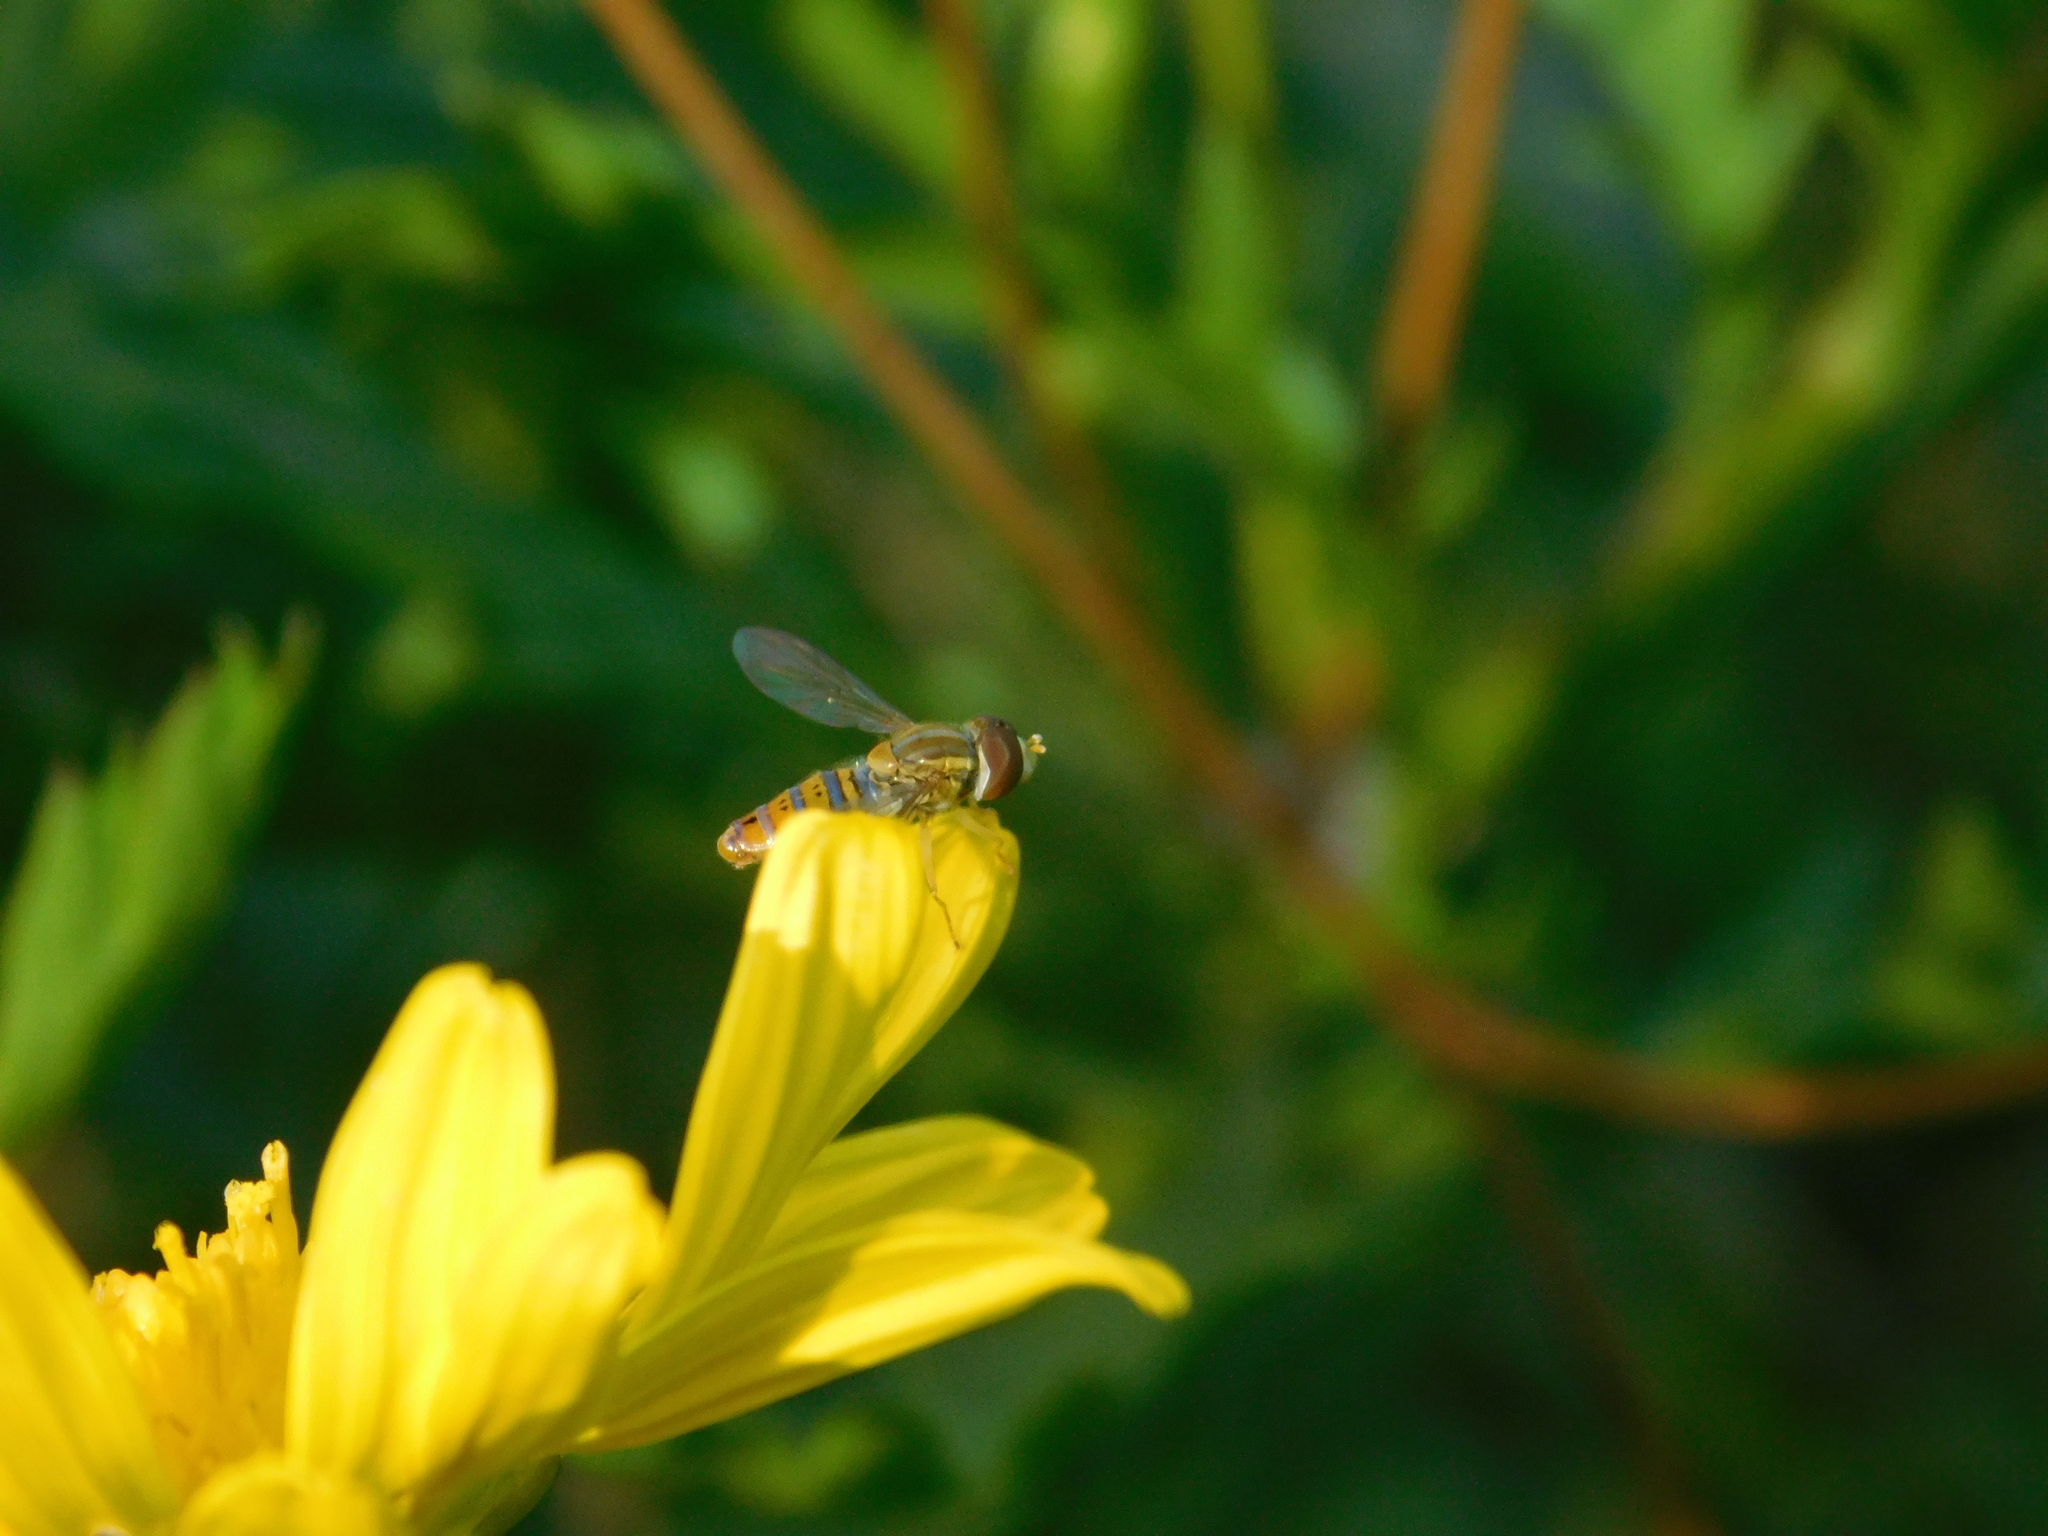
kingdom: Animalia
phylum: Arthropoda
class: Insecta
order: Diptera
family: Syrphidae
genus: Toxomerus
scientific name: Toxomerus
